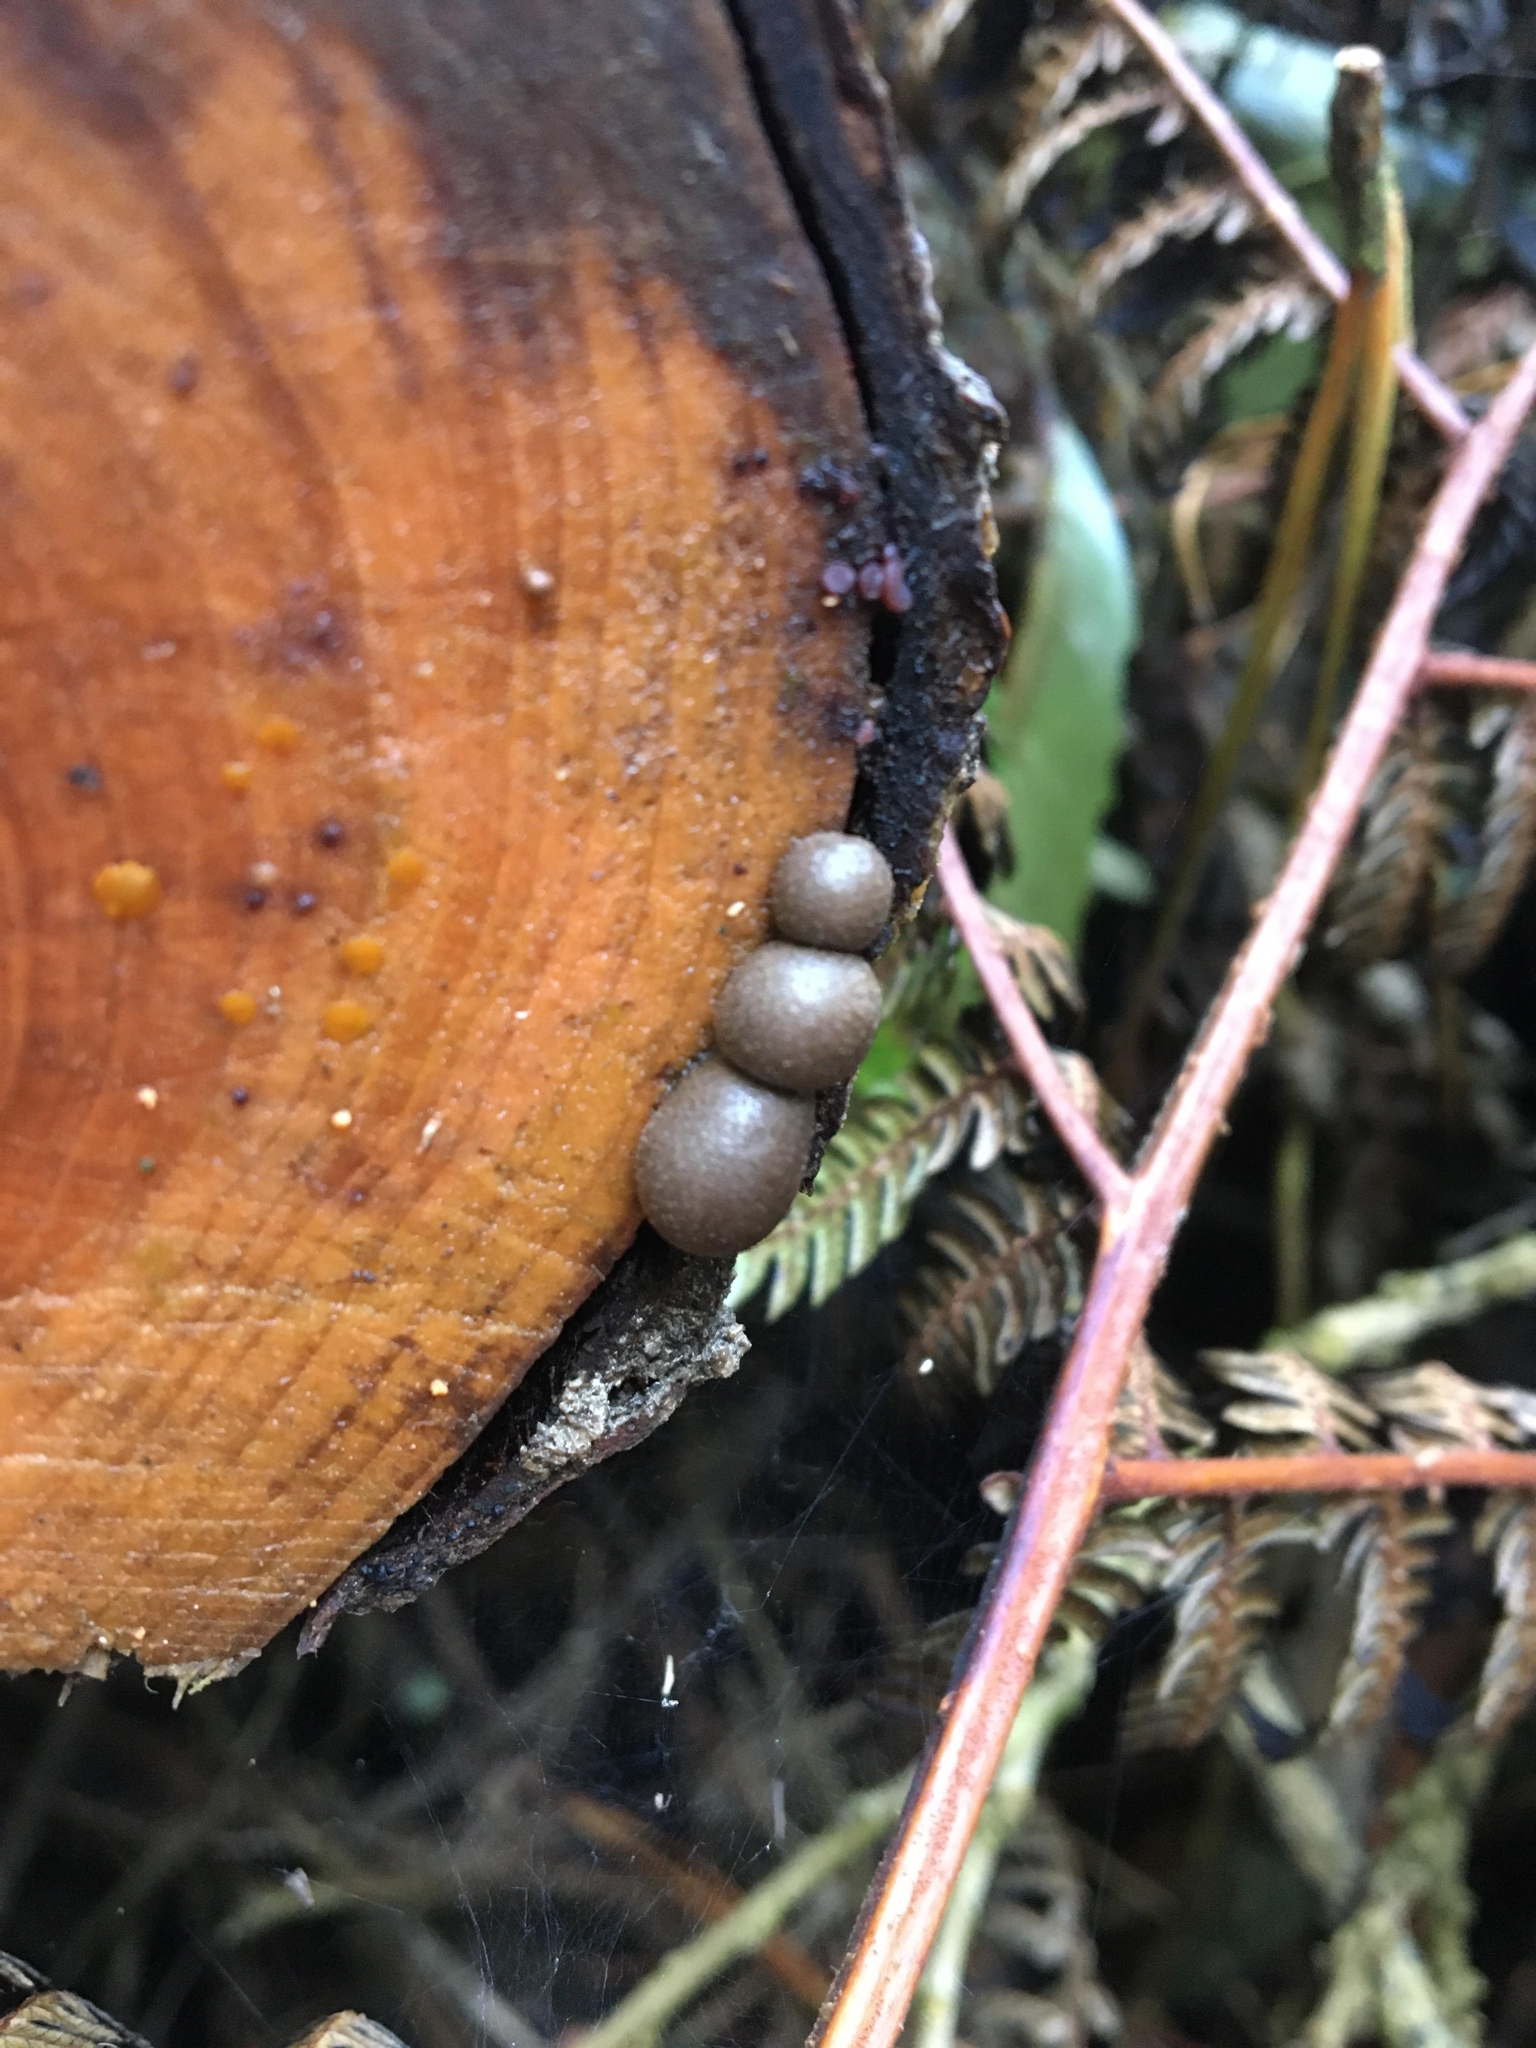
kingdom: Protozoa
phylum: Mycetozoa
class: Myxomycetes
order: Cribrariales
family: Tubiferaceae
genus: Lycogala
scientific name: Lycogala epidendrum
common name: Wolf's milk
